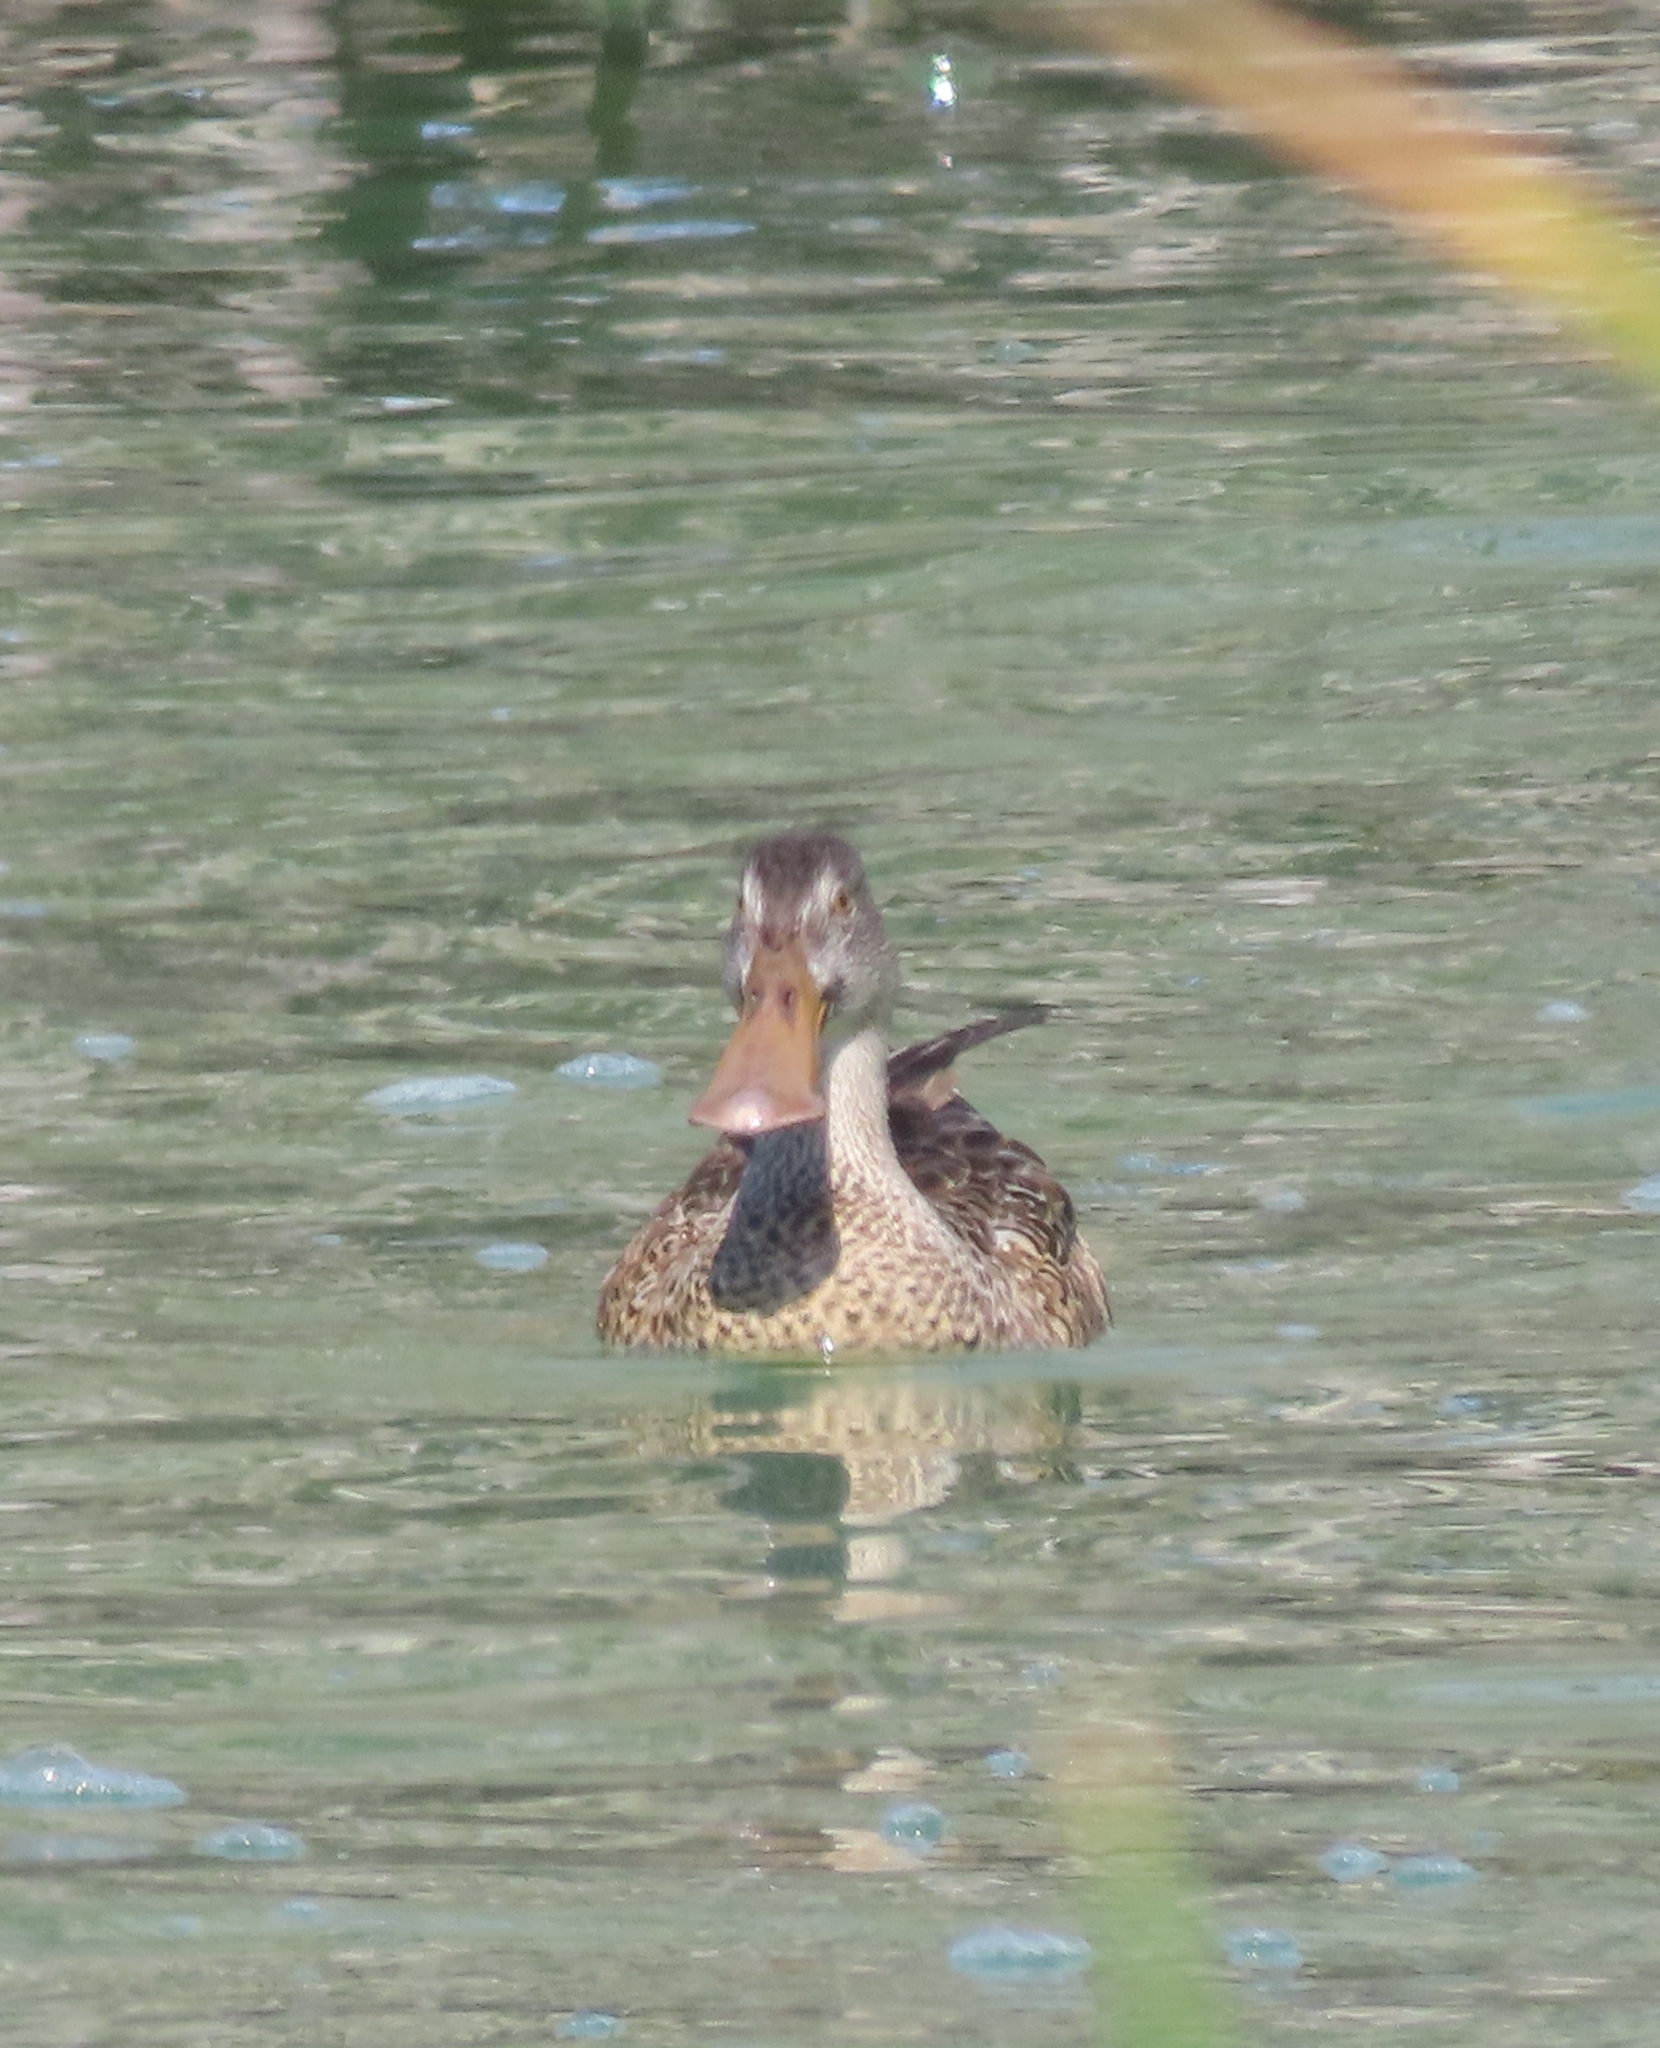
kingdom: Animalia
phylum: Chordata
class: Aves
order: Anseriformes
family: Anatidae
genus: Spatula
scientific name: Spatula clypeata
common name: Northern shoveler
